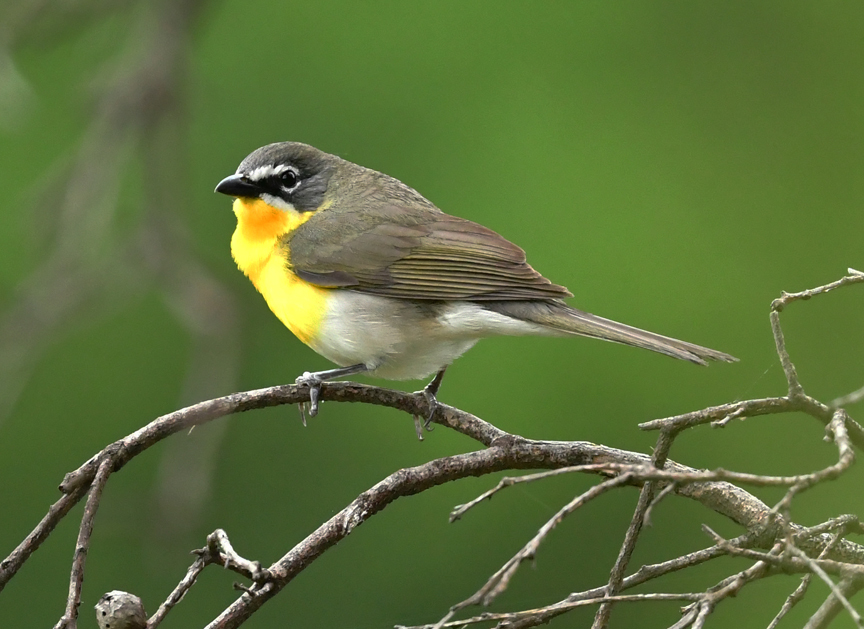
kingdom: Animalia
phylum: Chordata
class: Aves
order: Passeriformes
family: Parulidae
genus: Icteria
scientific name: Icteria virens
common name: Yellow-breasted chat
